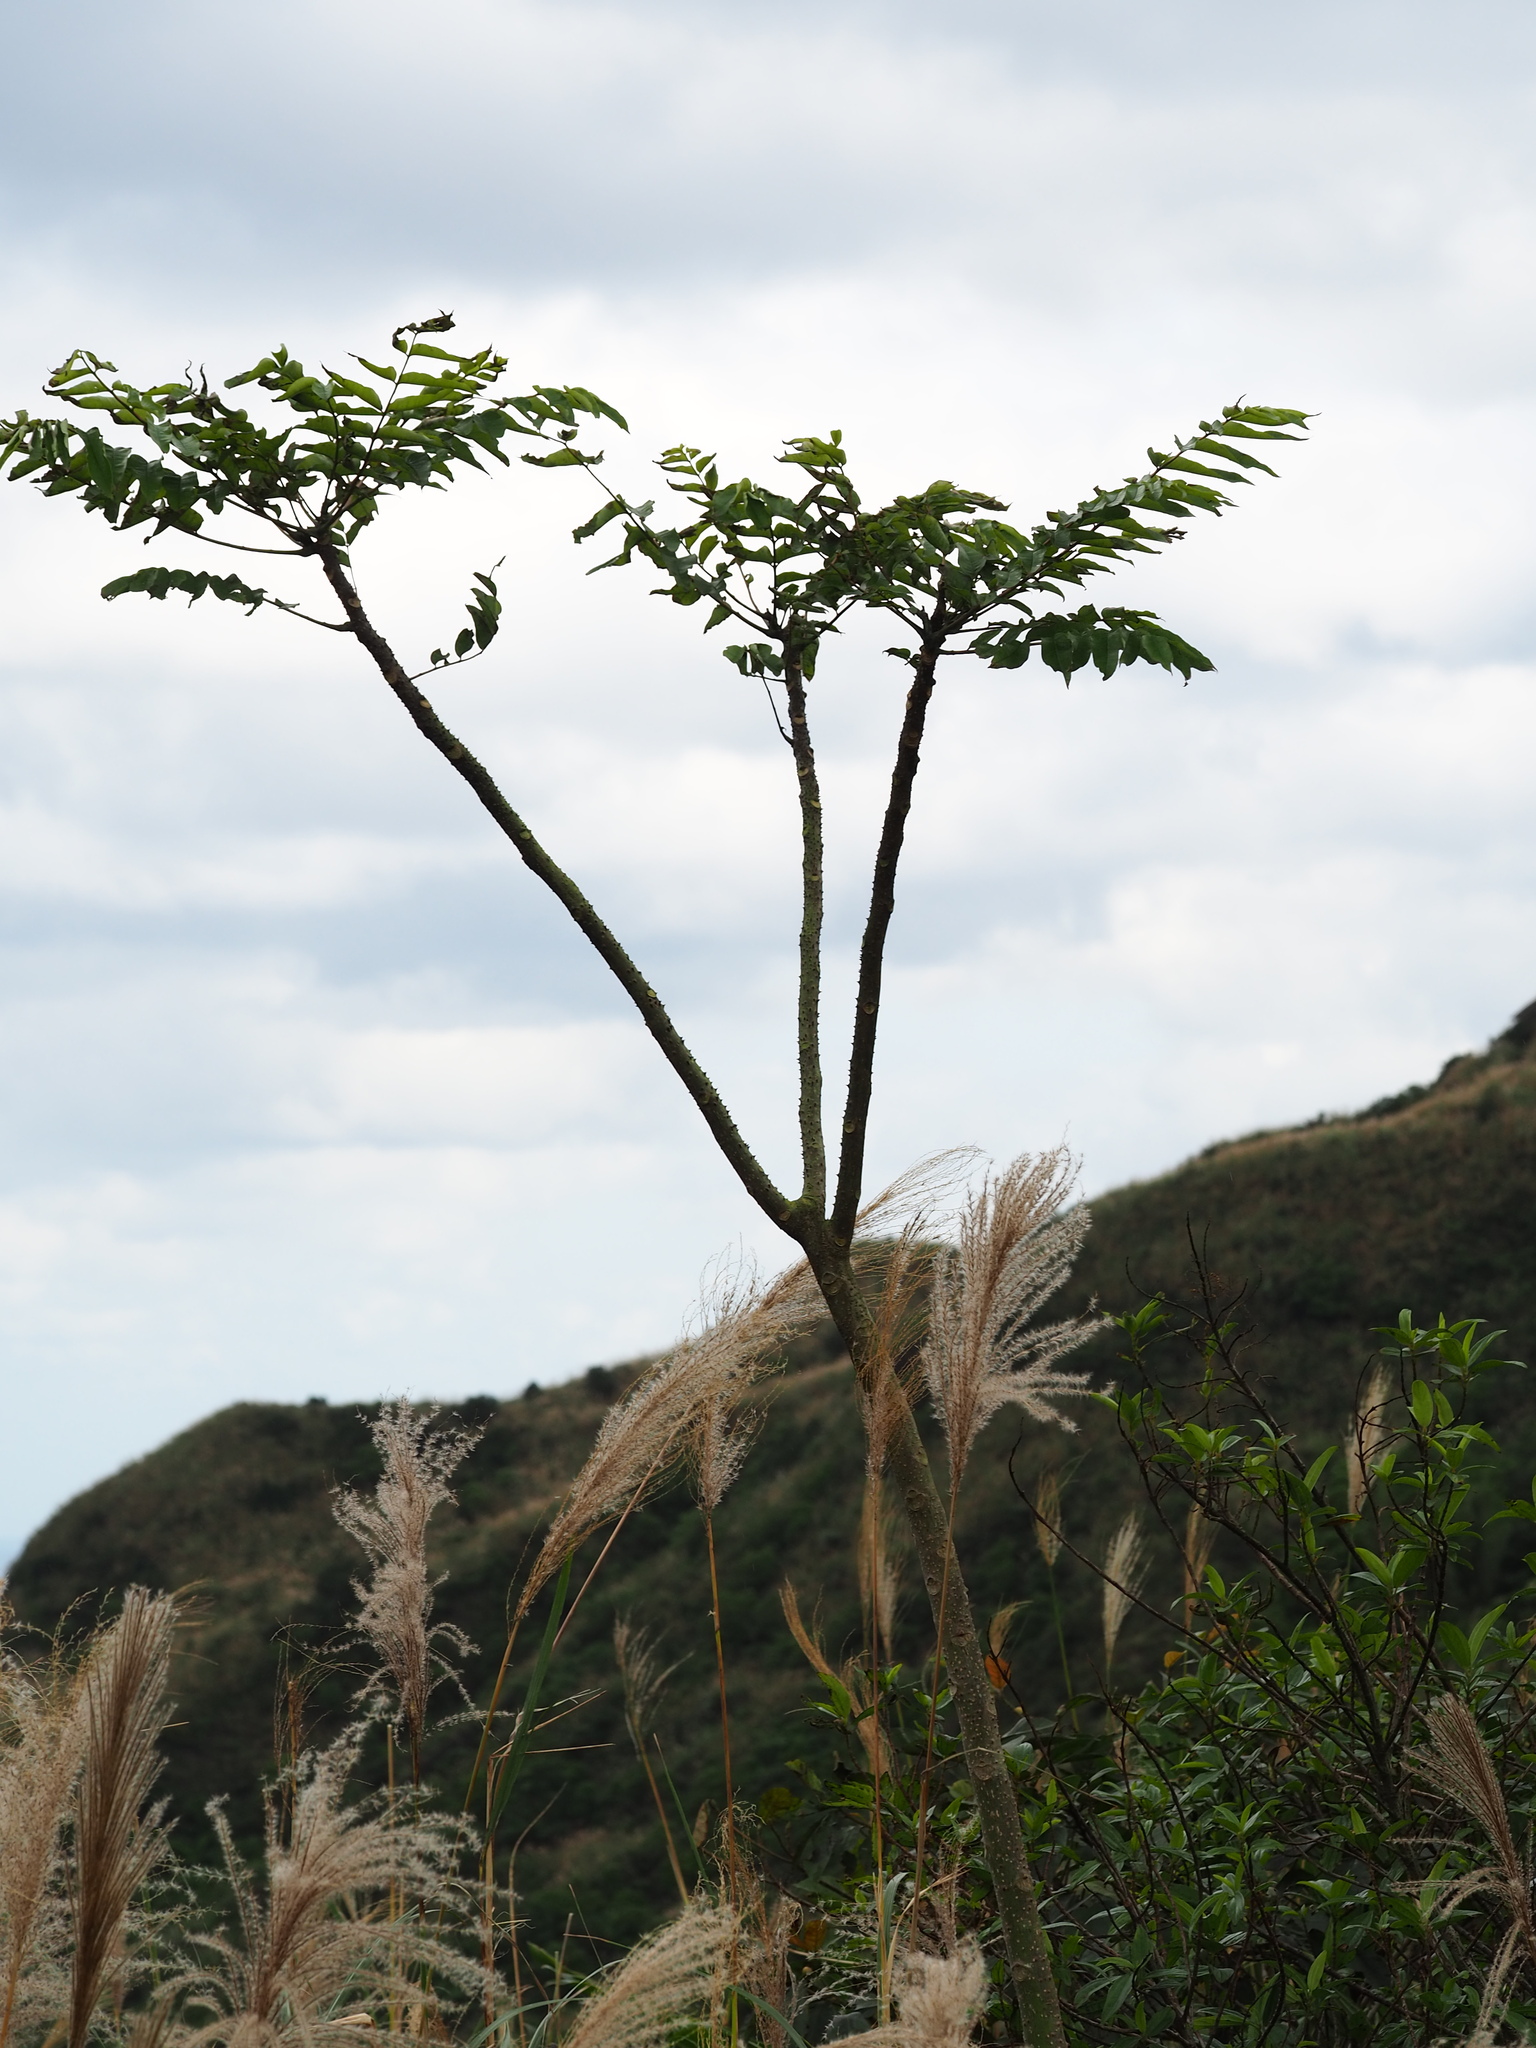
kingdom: Plantae
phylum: Tracheophyta
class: Magnoliopsida
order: Apiales
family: Araliaceae
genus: Aralia
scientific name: Aralia decaisneana
